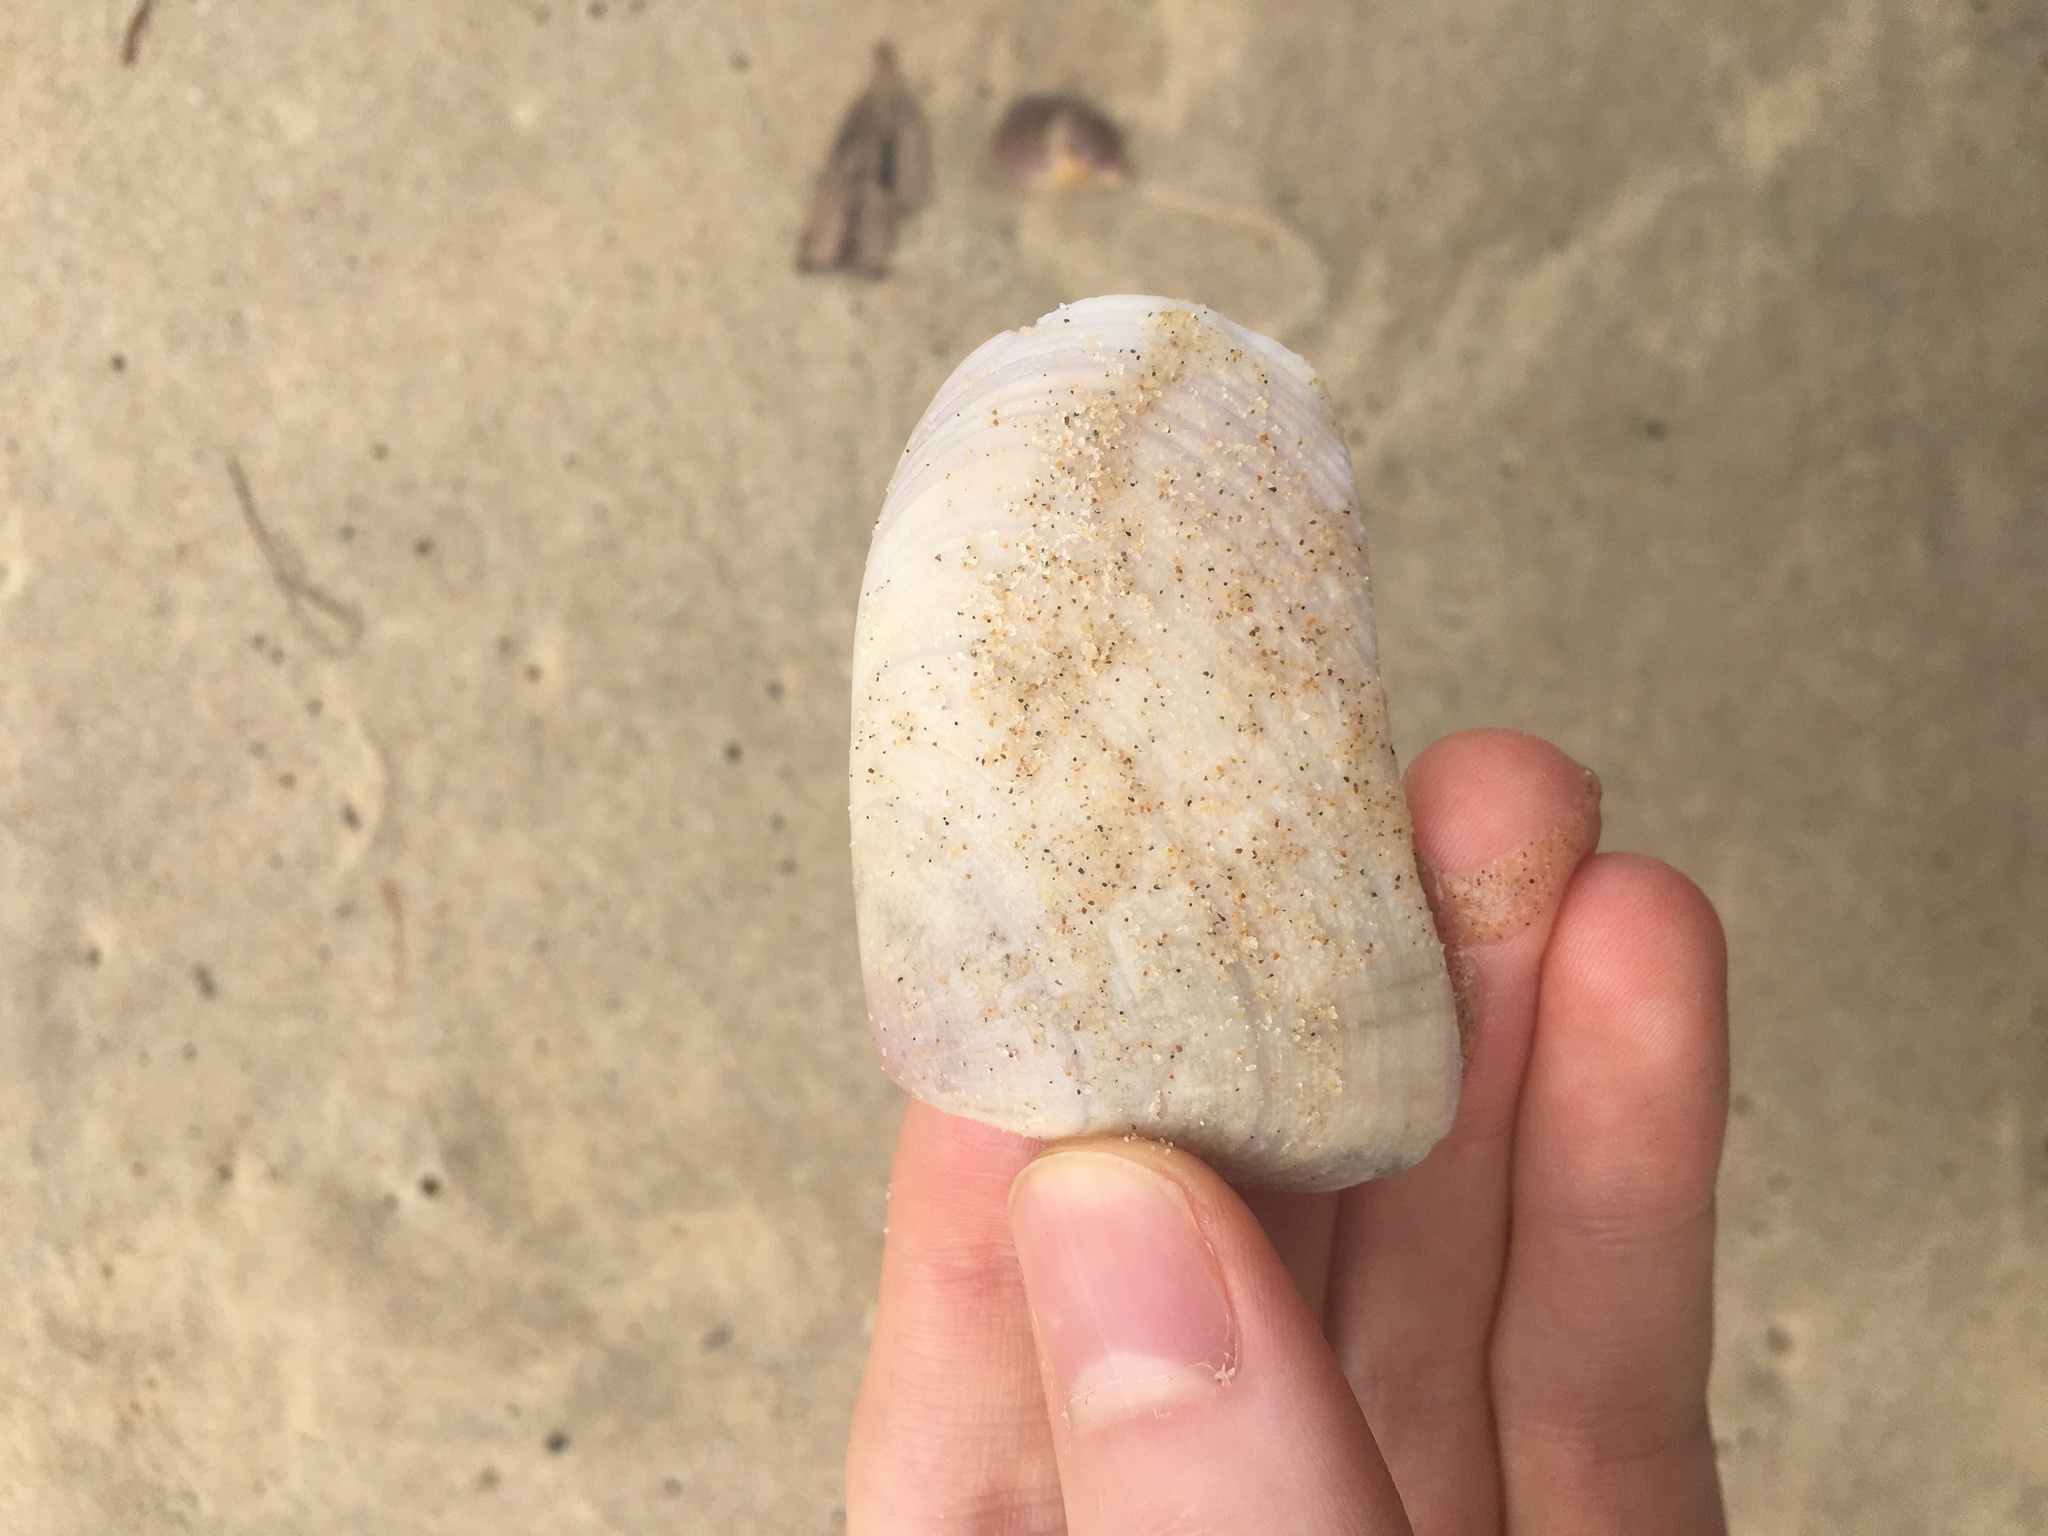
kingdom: Animalia
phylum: Mollusca
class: Bivalvia
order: Cardiida
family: Donacidae
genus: Latona
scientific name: Latona deltoides
